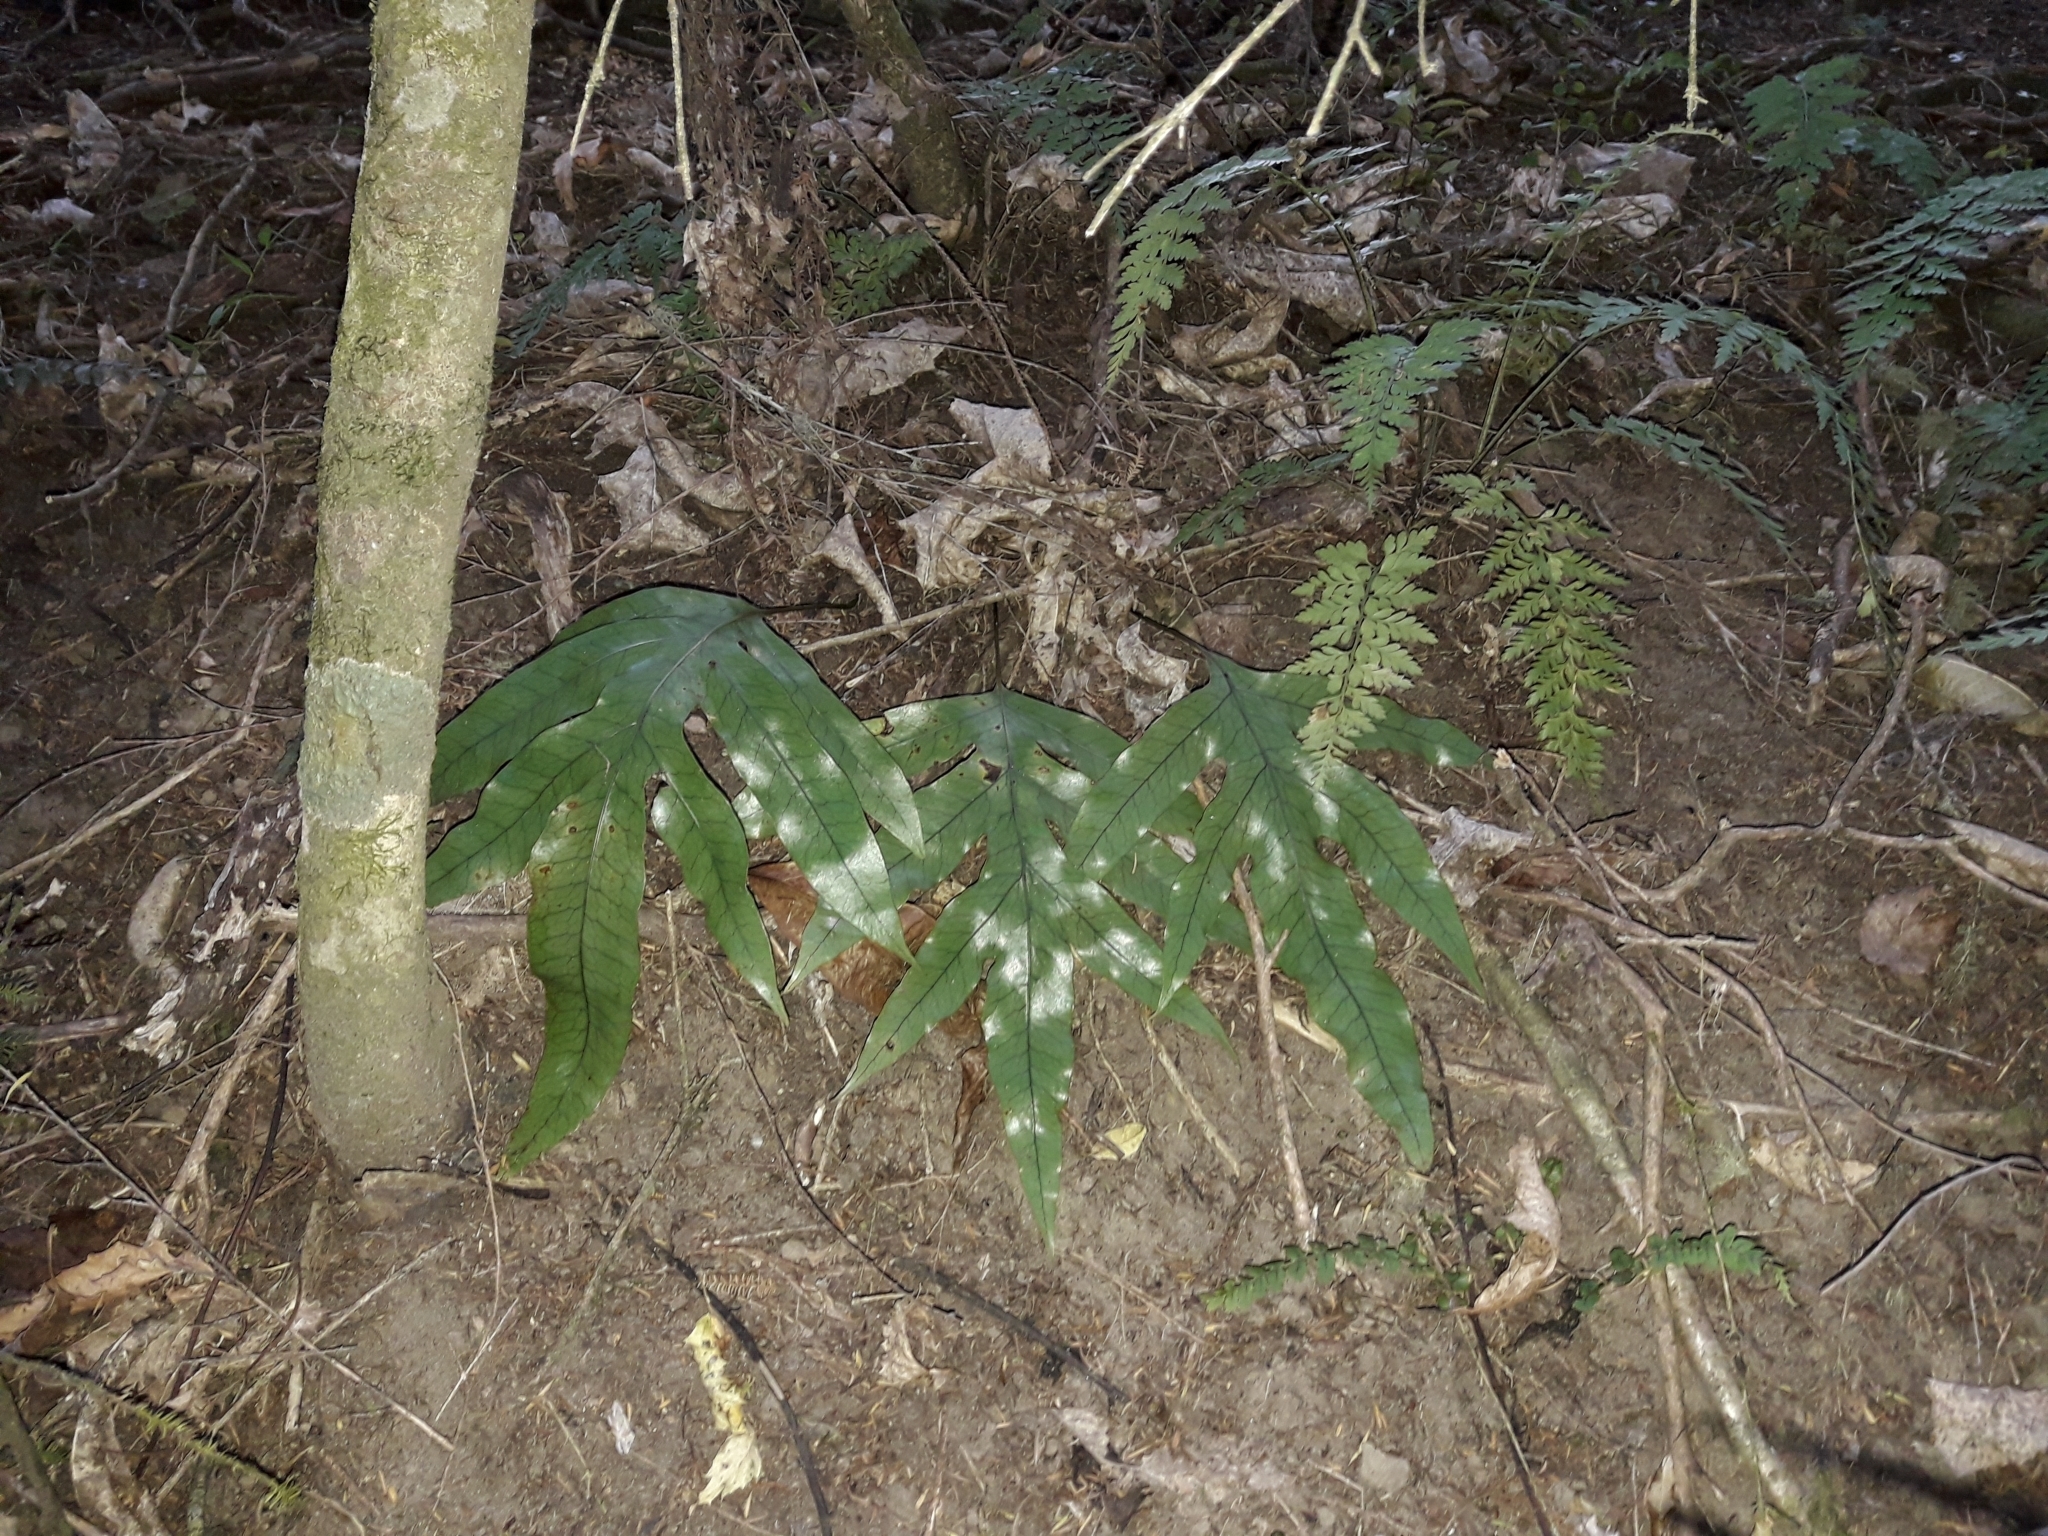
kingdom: Plantae
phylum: Tracheophyta
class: Polypodiopsida
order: Polypodiales
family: Polypodiaceae
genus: Lecanopteris
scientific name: Lecanopteris pustulata
